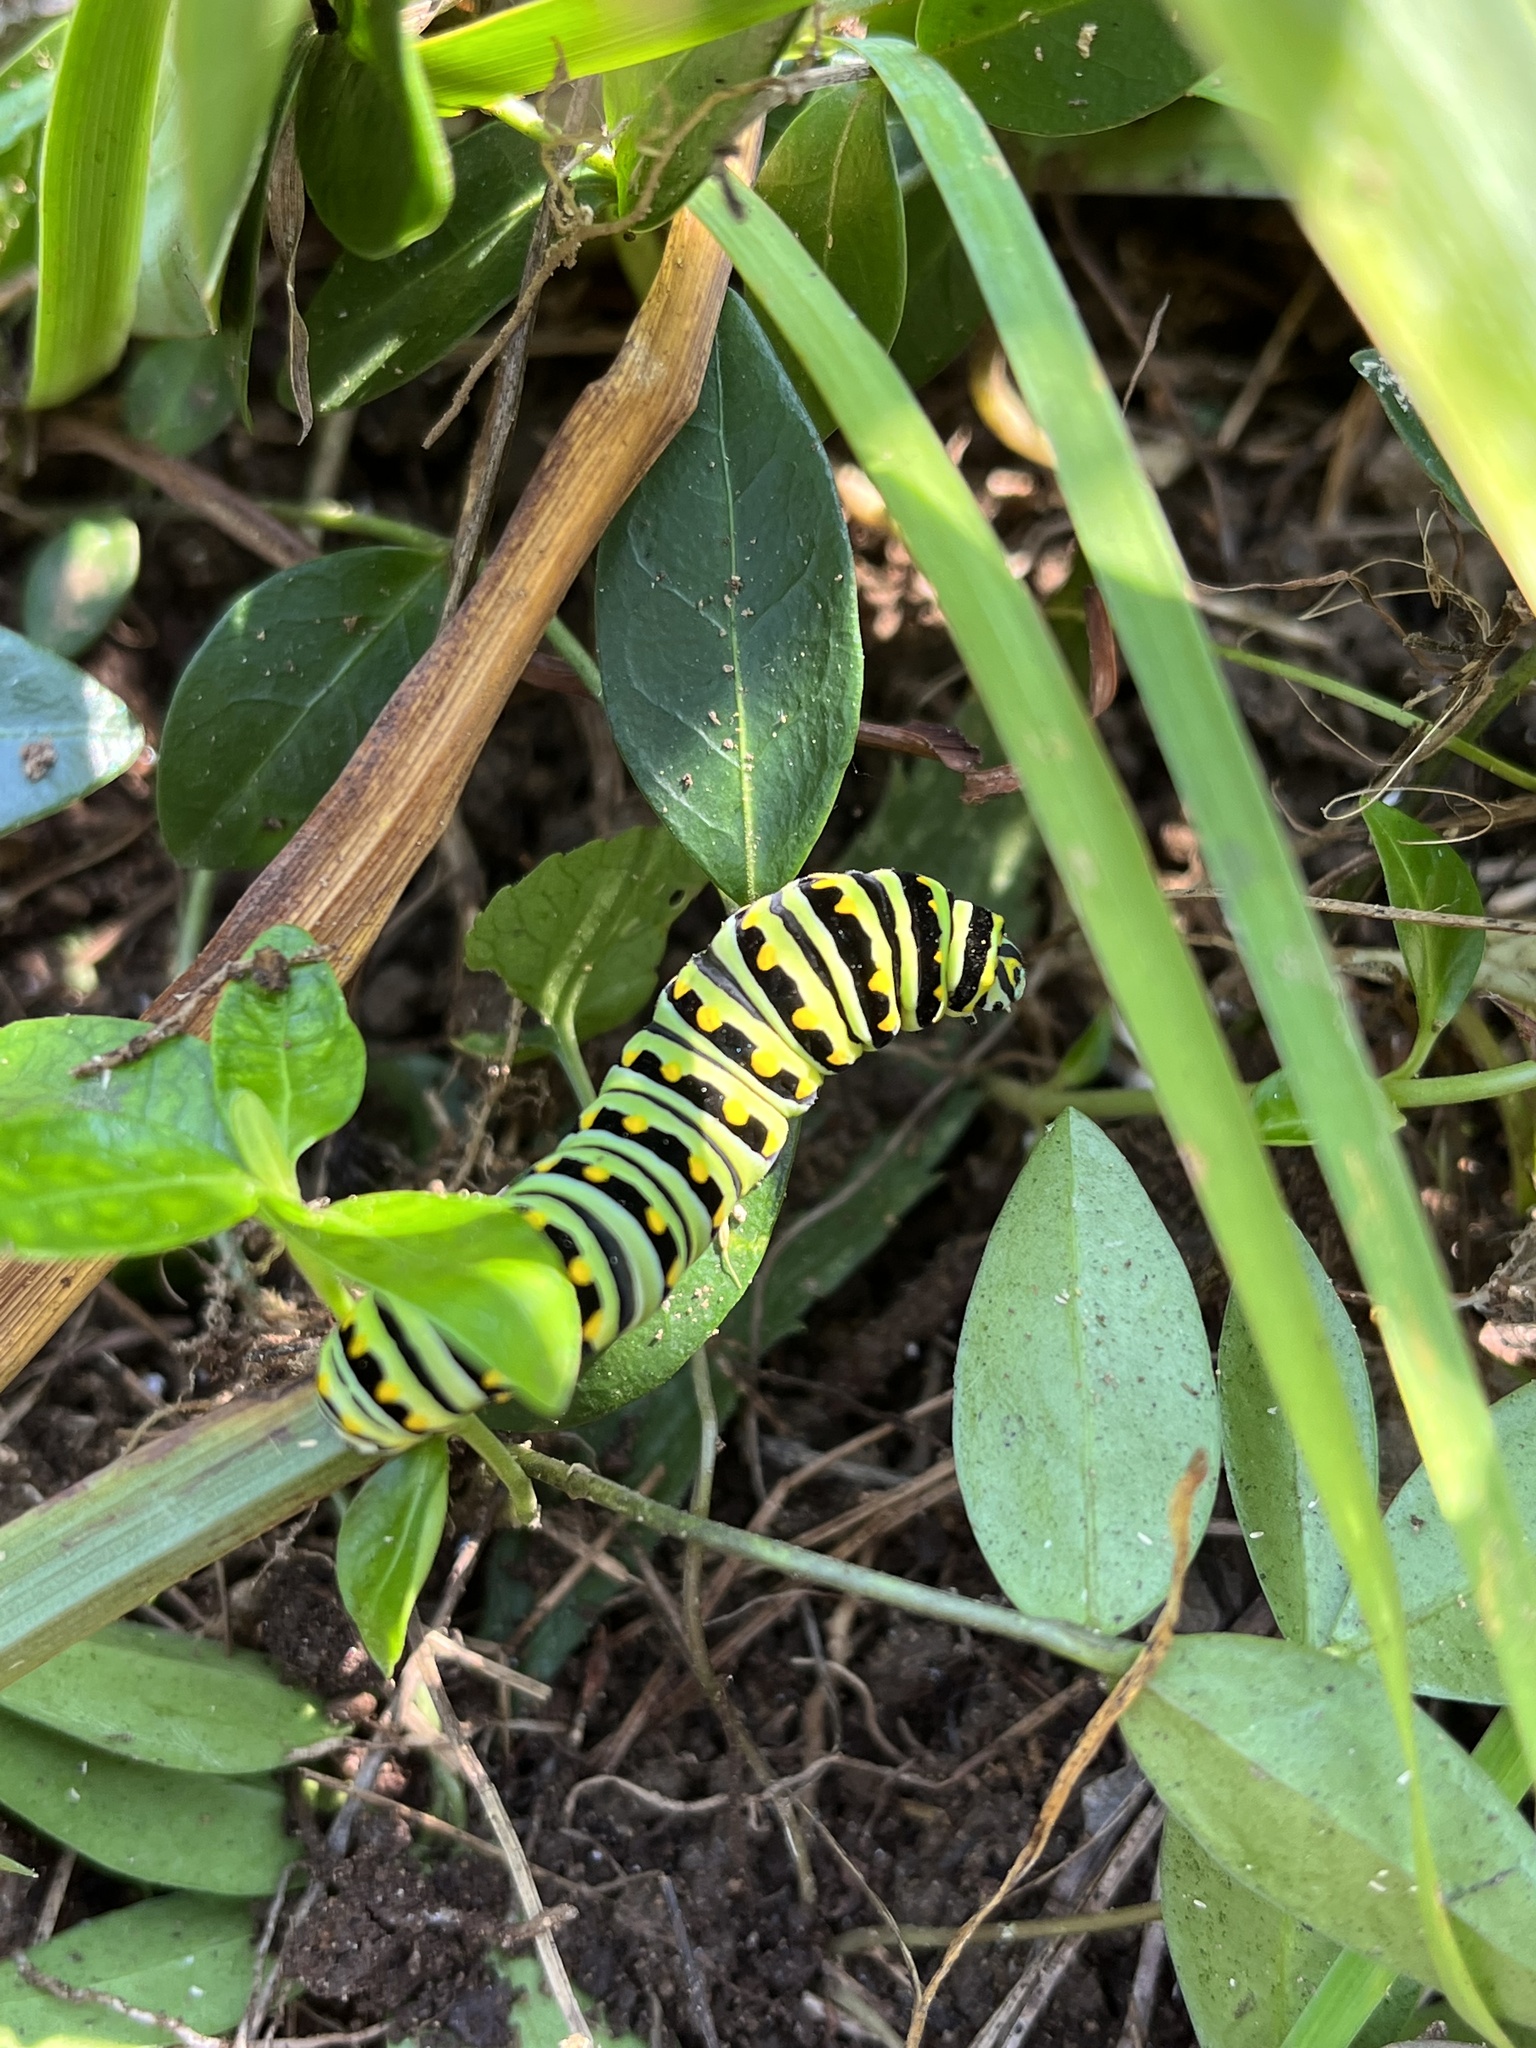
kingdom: Animalia
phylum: Arthropoda
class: Insecta
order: Lepidoptera
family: Papilionidae
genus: Papilio
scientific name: Papilio polyxenes
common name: Black swallowtail
